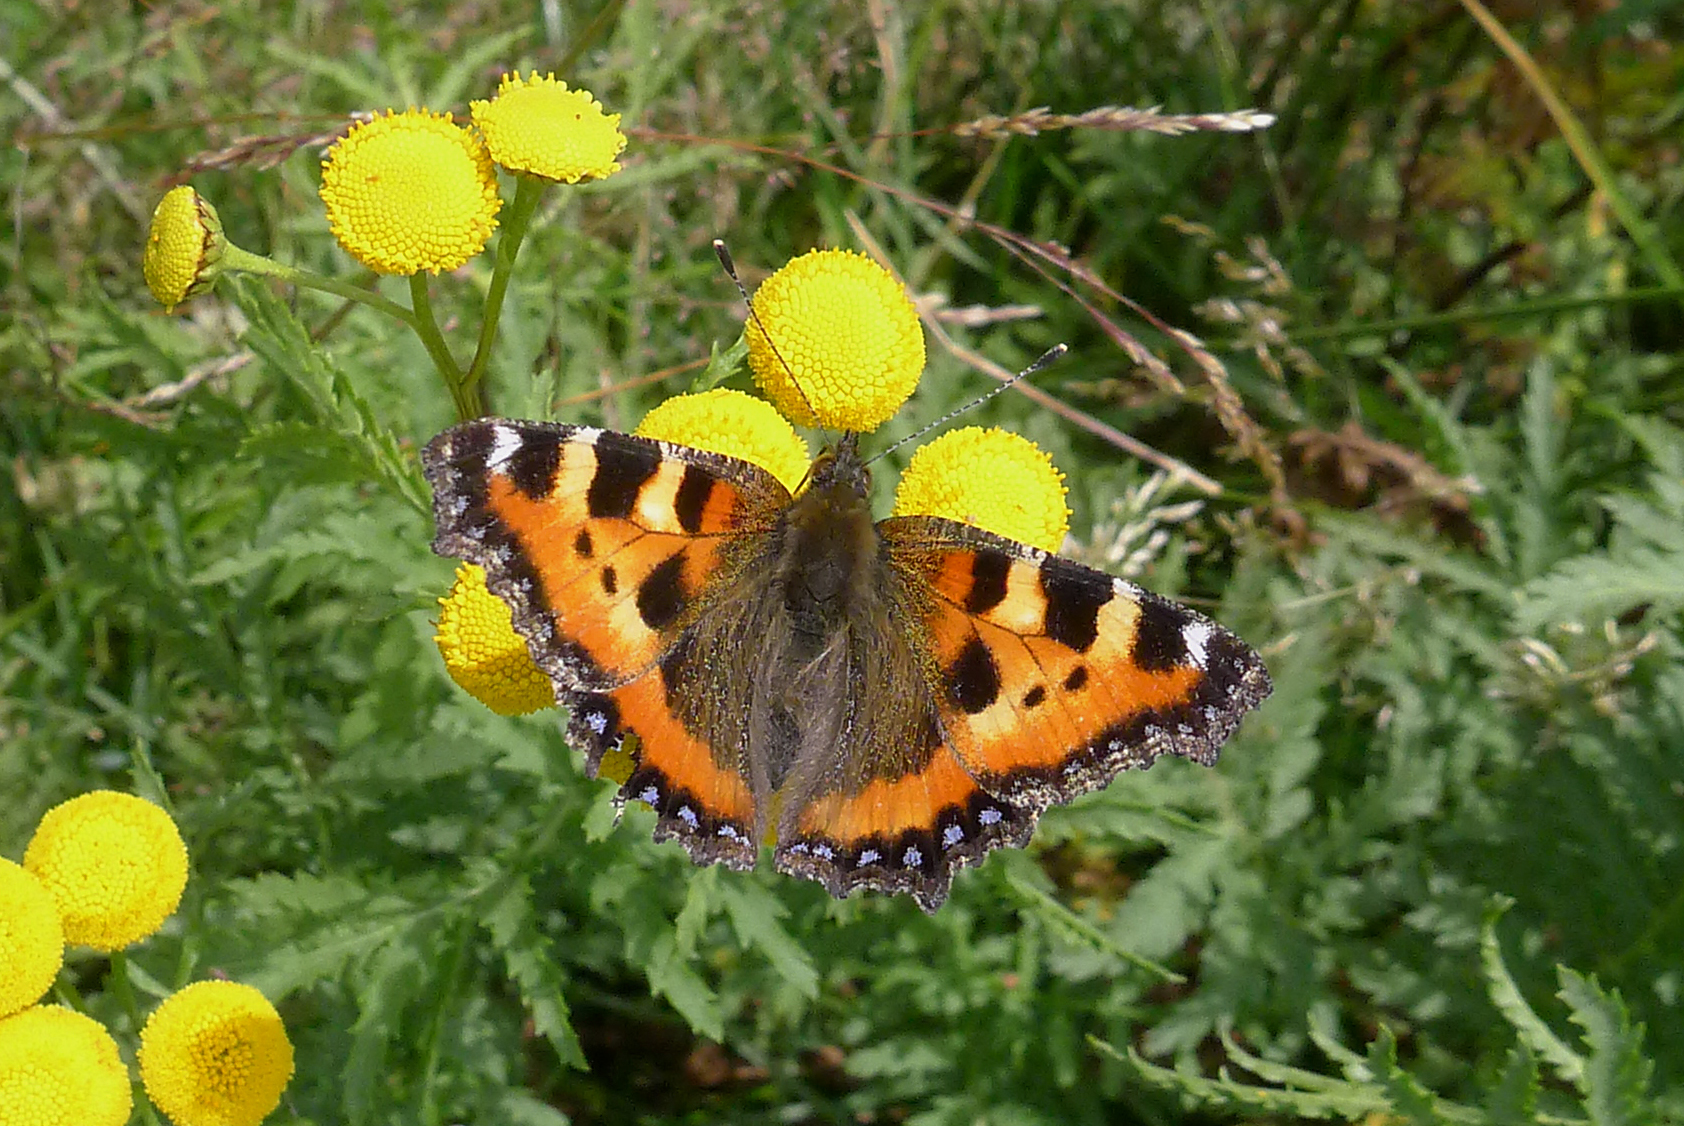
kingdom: Animalia
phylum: Arthropoda
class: Insecta
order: Lepidoptera
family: Nymphalidae
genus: Aglais
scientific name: Aglais urticae
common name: Small tortoiseshell
